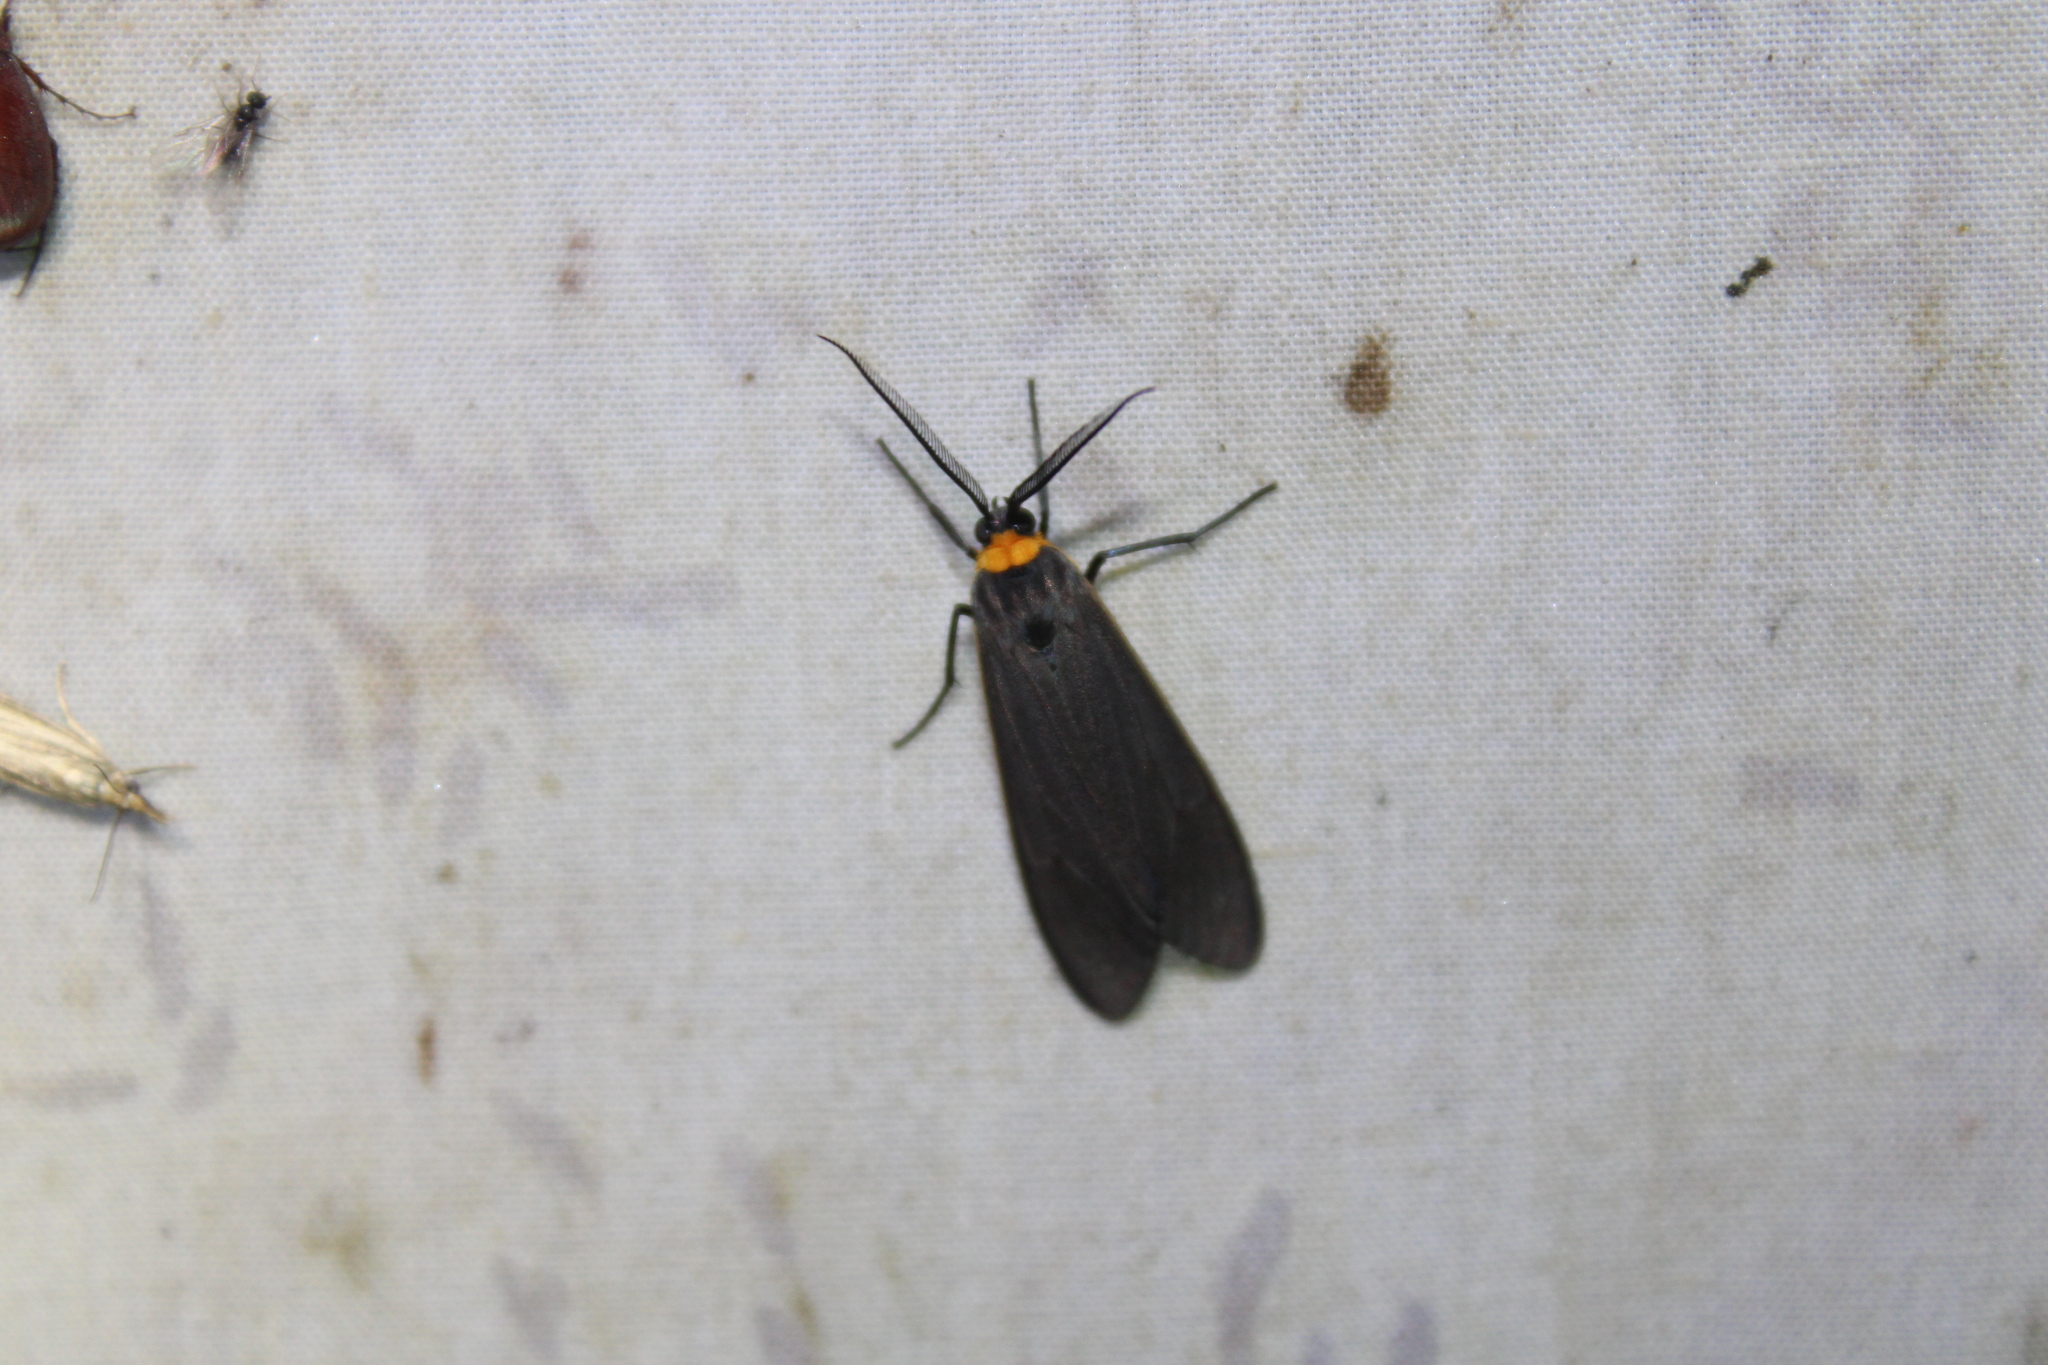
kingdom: Animalia
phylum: Arthropoda
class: Insecta
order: Lepidoptera
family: Erebidae
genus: Cisseps
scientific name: Cisseps fulvicollis
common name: Yellow-collared scape moth
